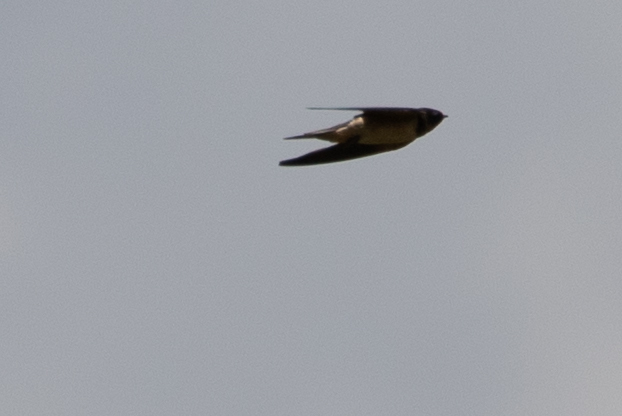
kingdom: Animalia
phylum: Chordata
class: Aves
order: Passeriformes
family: Hirundinidae
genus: Hirundo
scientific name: Hirundo rustica
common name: Barn swallow
